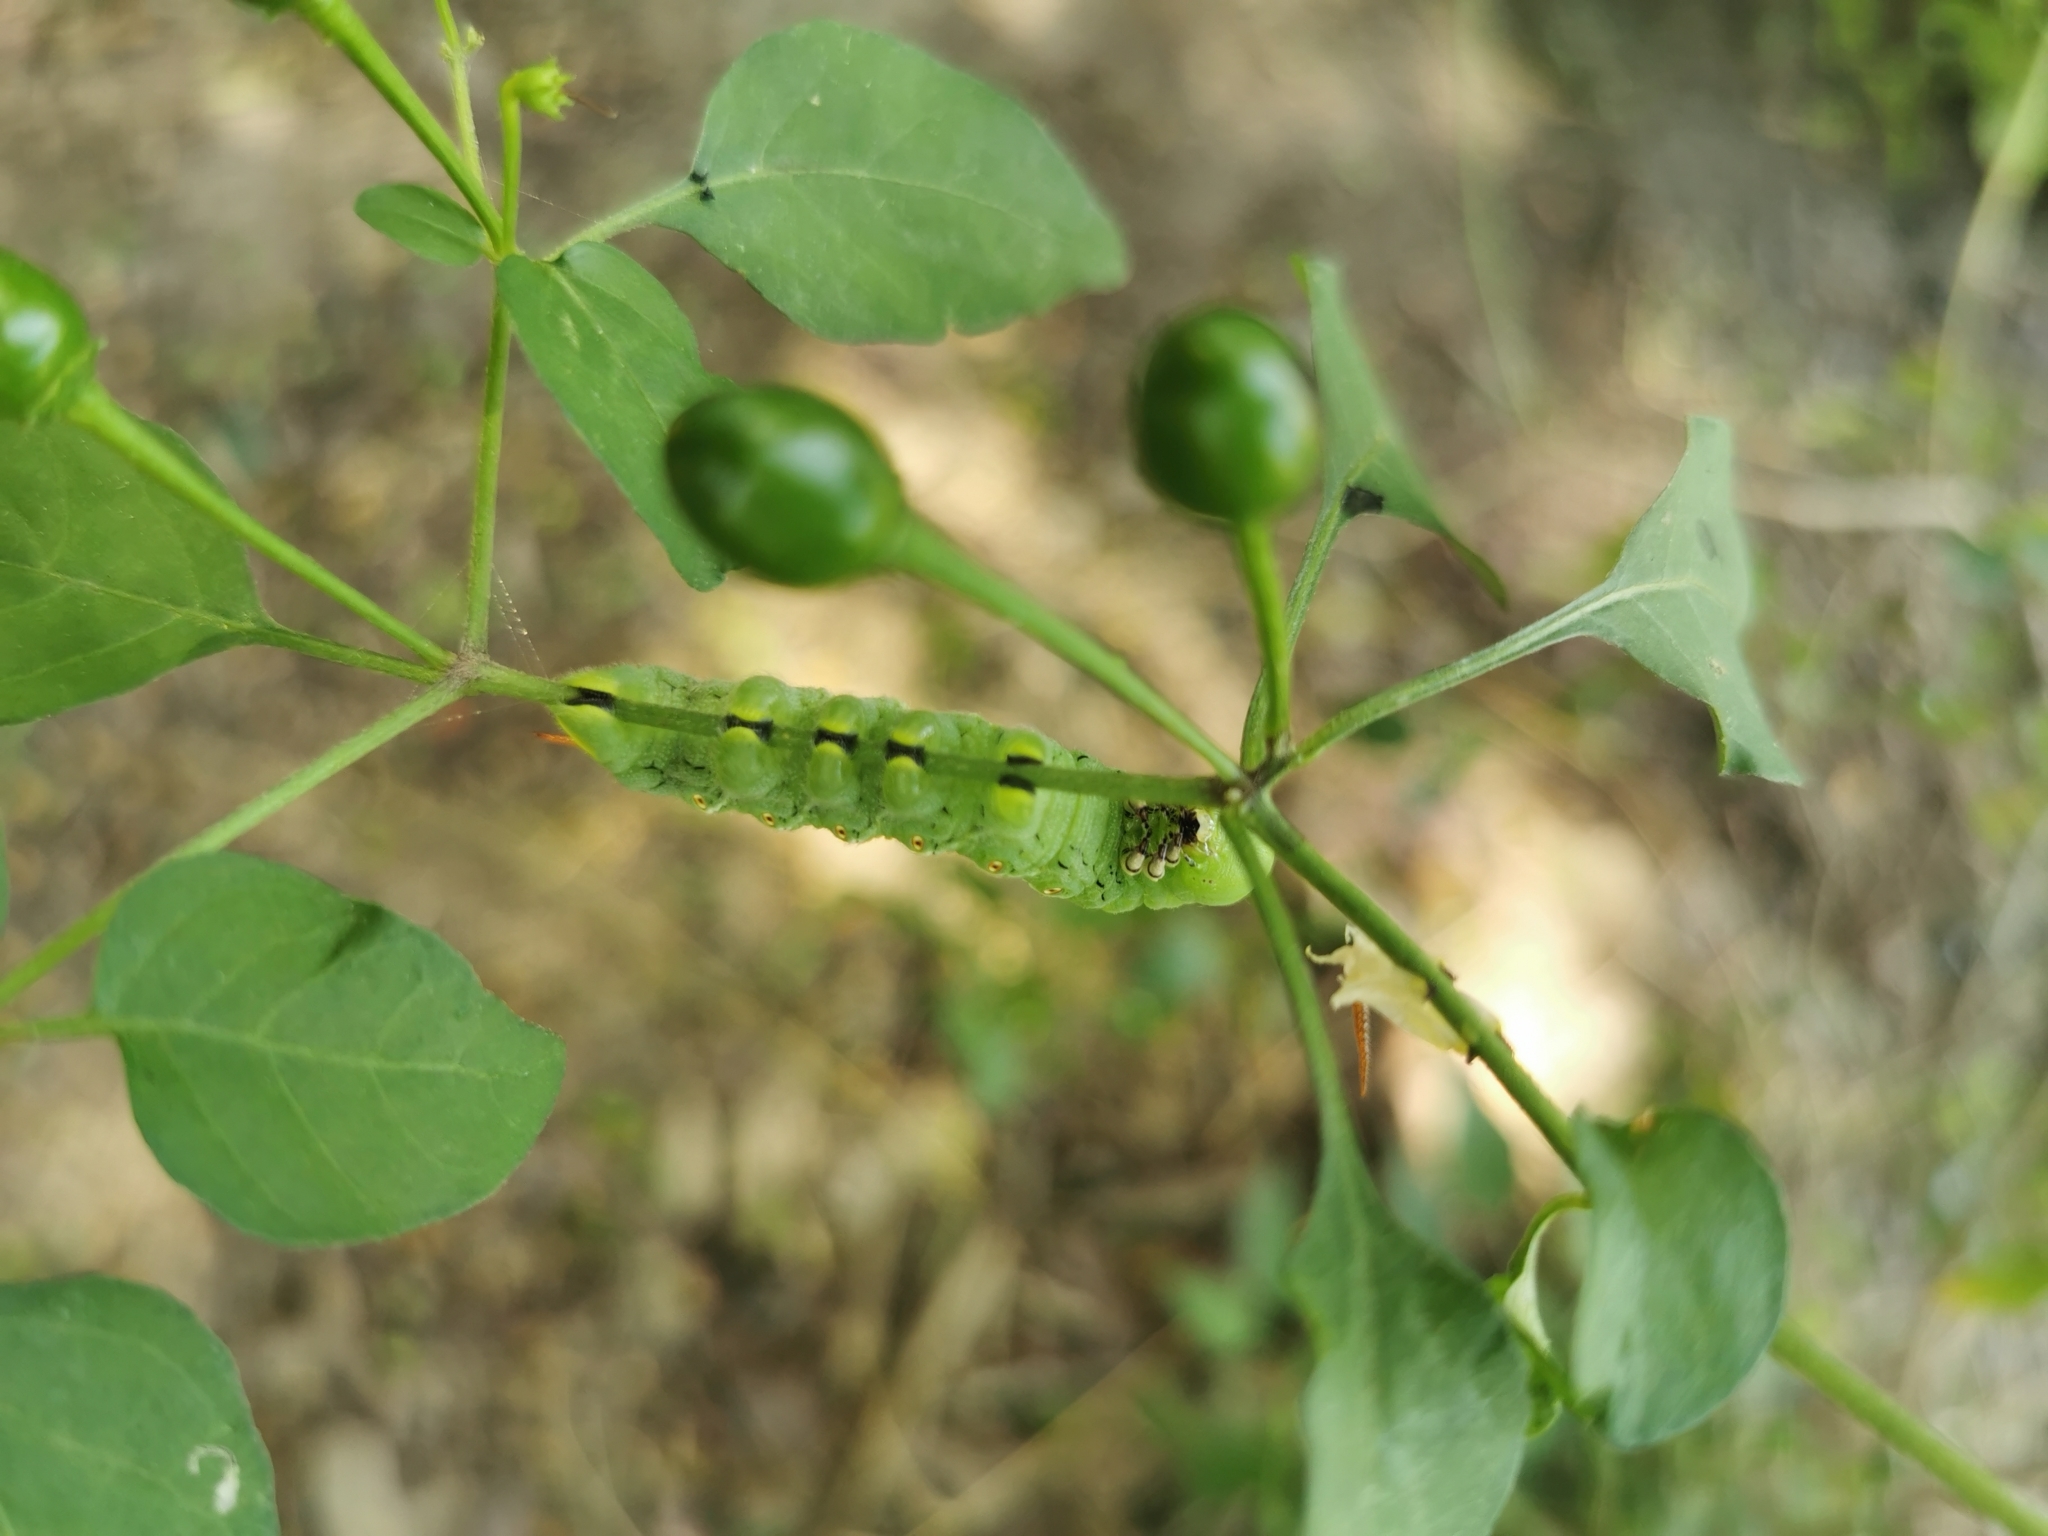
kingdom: Animalia
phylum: Arthropoda
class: Insecta
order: Lepidoptera
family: Sphingidae
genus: Manduca
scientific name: Manduca sexta
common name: Carolina sphinx
